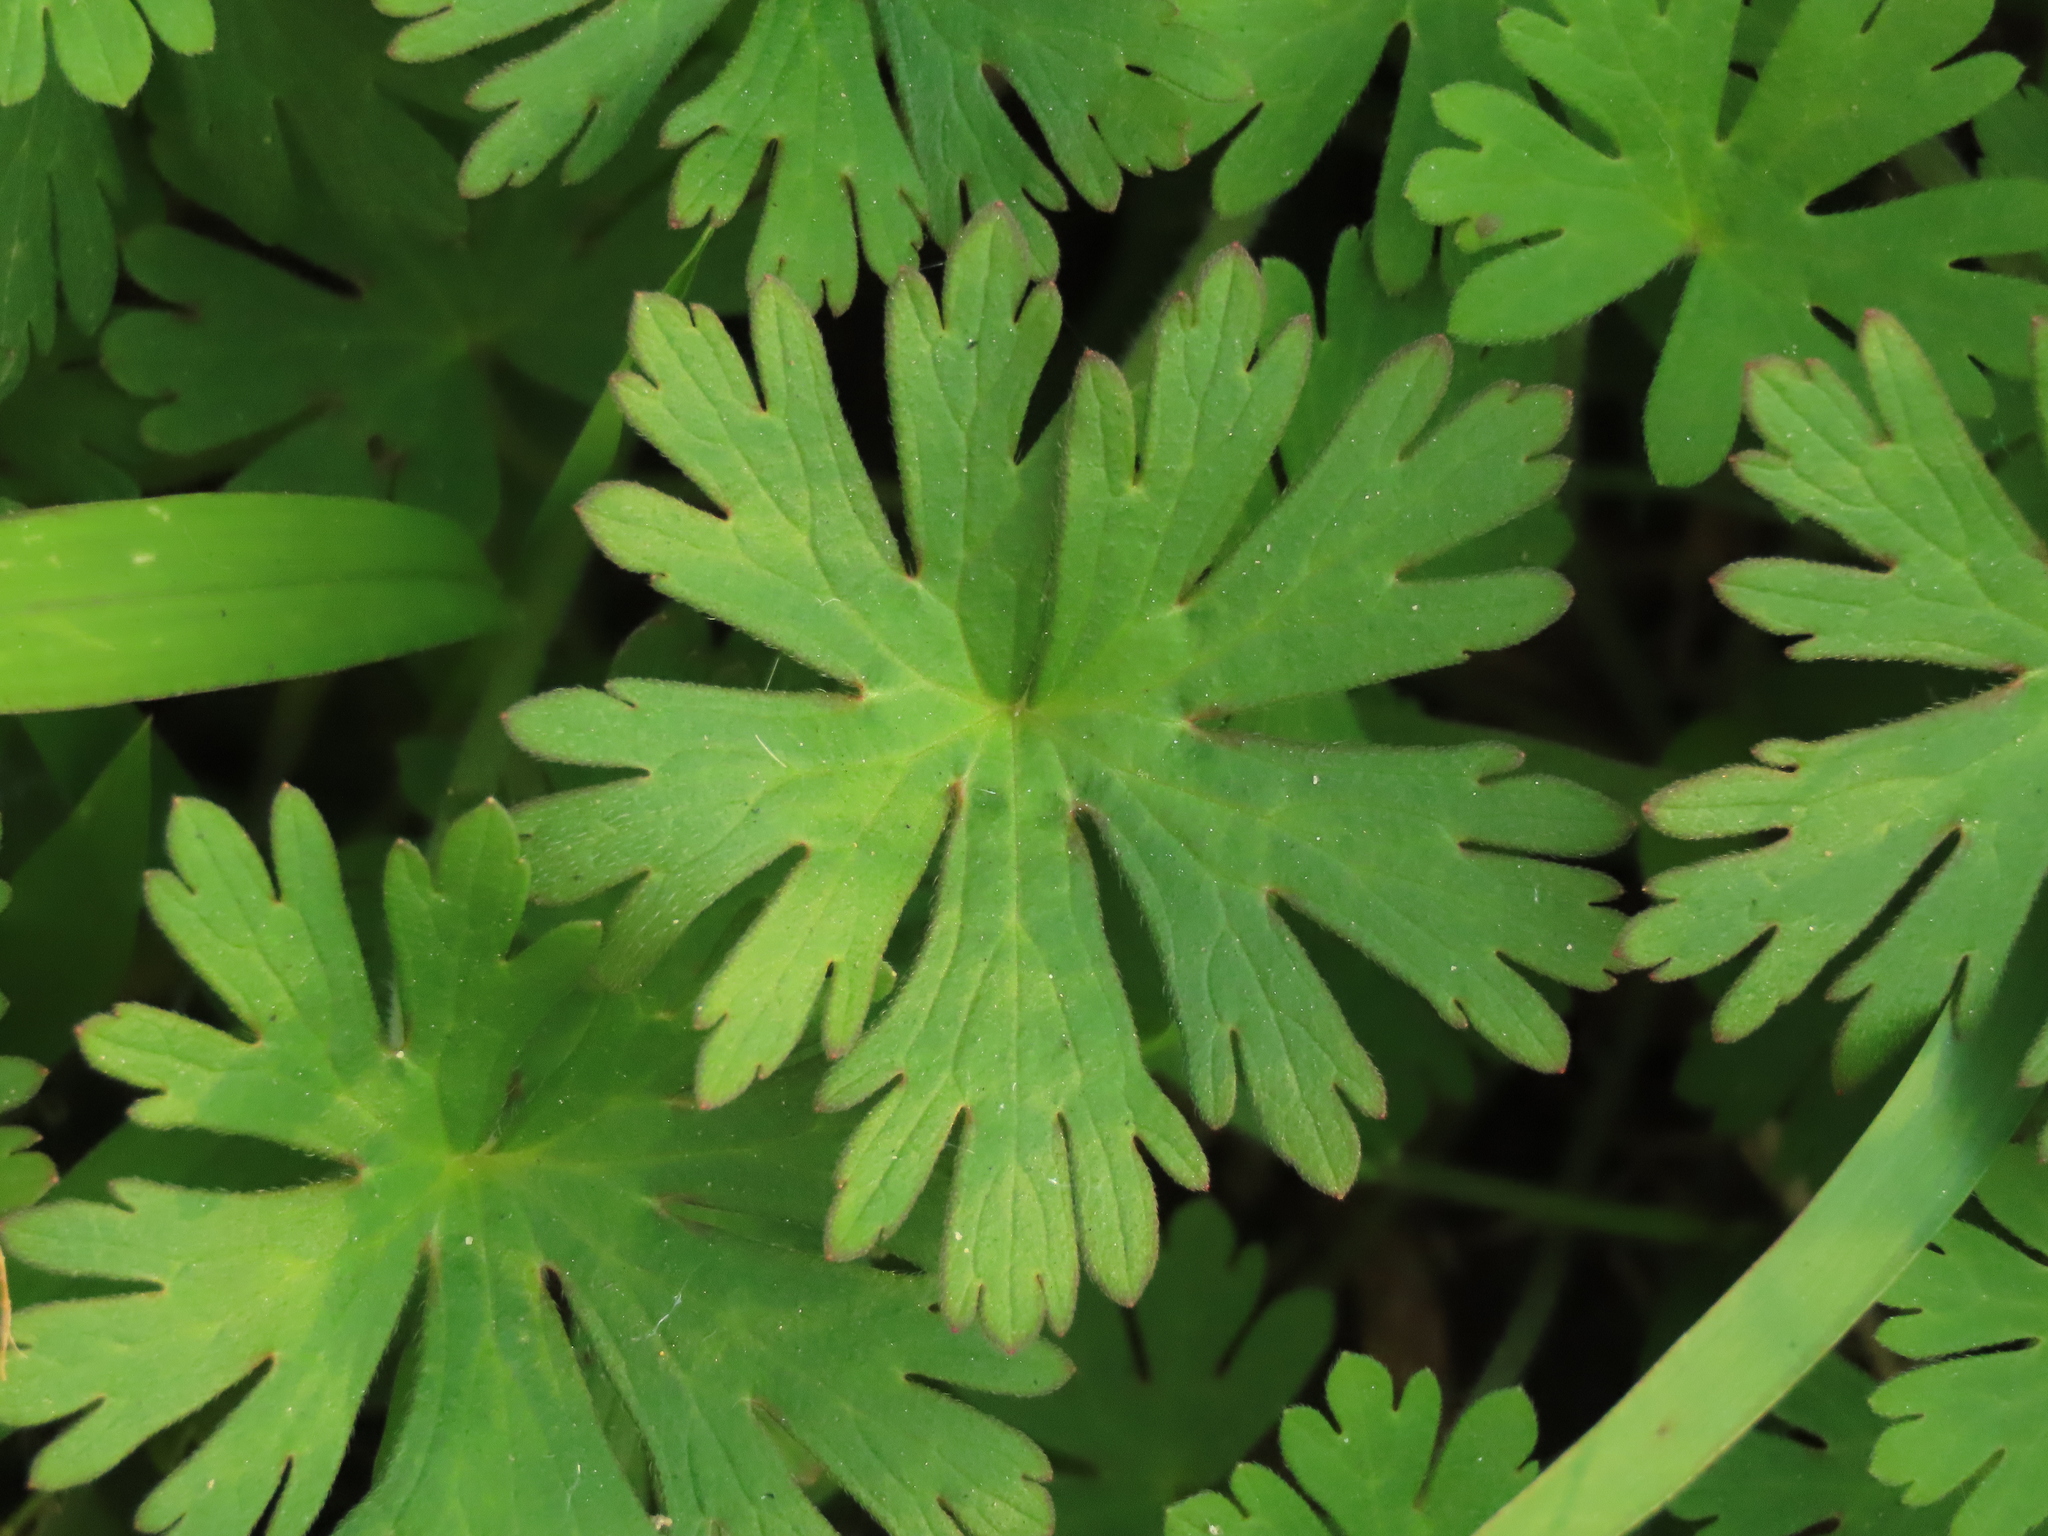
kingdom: Plantae
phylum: Tracheophyta
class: Magnoliopsida
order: Geraniales
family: Geraniaceae
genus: Geranium
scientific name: Geranium carolinianum
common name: Carolina crane's-bill
